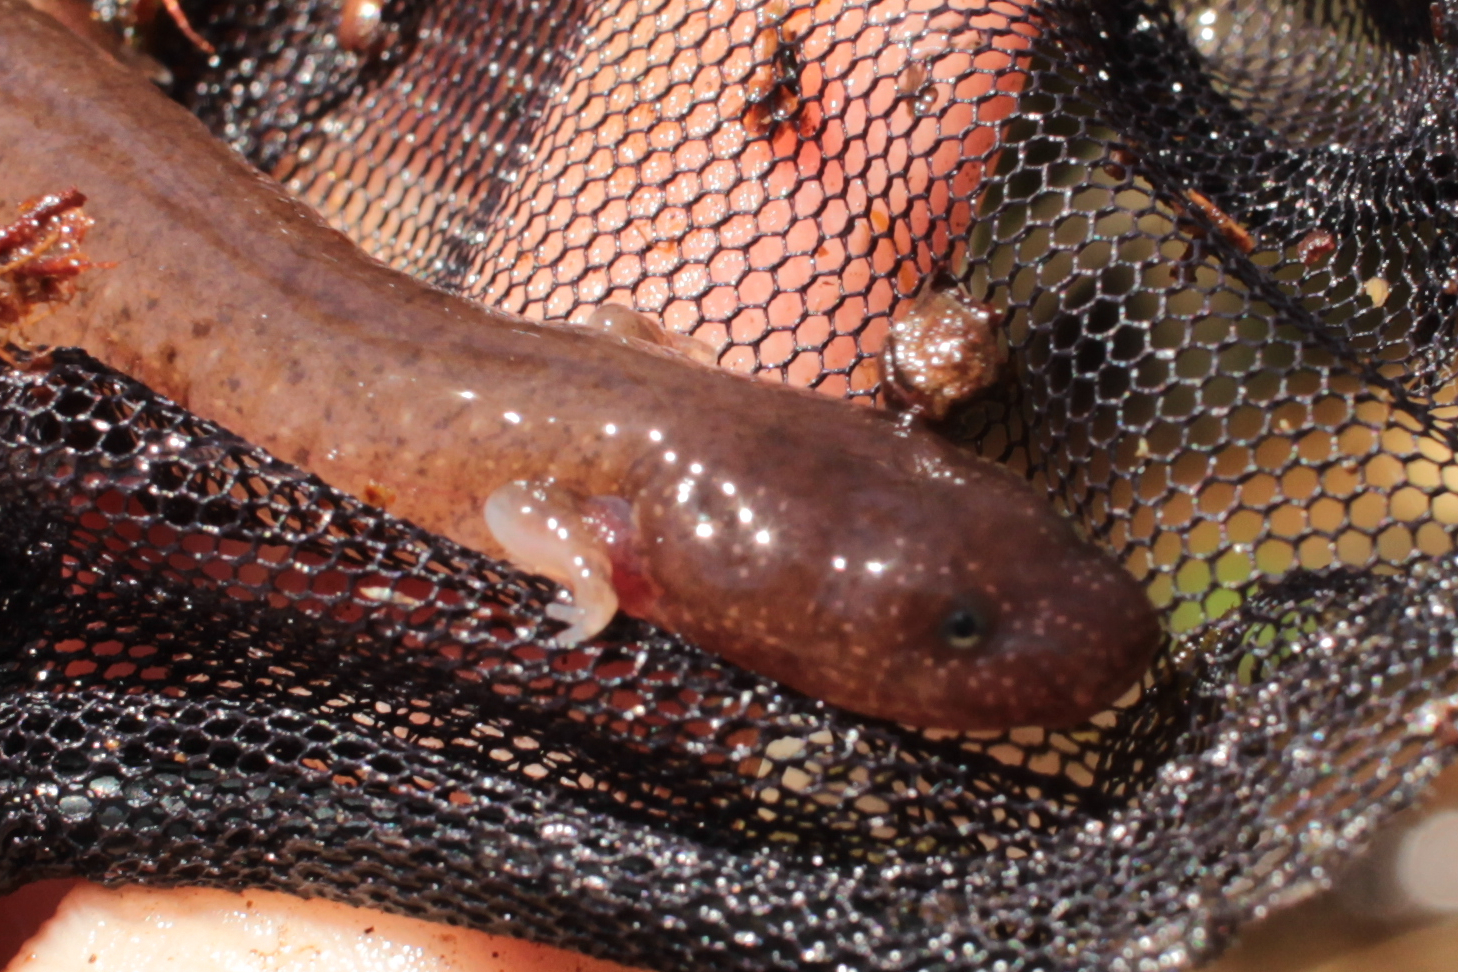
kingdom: Animalia
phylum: Chordata
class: Amphibia
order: Caudata
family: Plethodontidae
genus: Gyrinophilus
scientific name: Gyrinophilus porphyriticus
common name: Spring salamander
